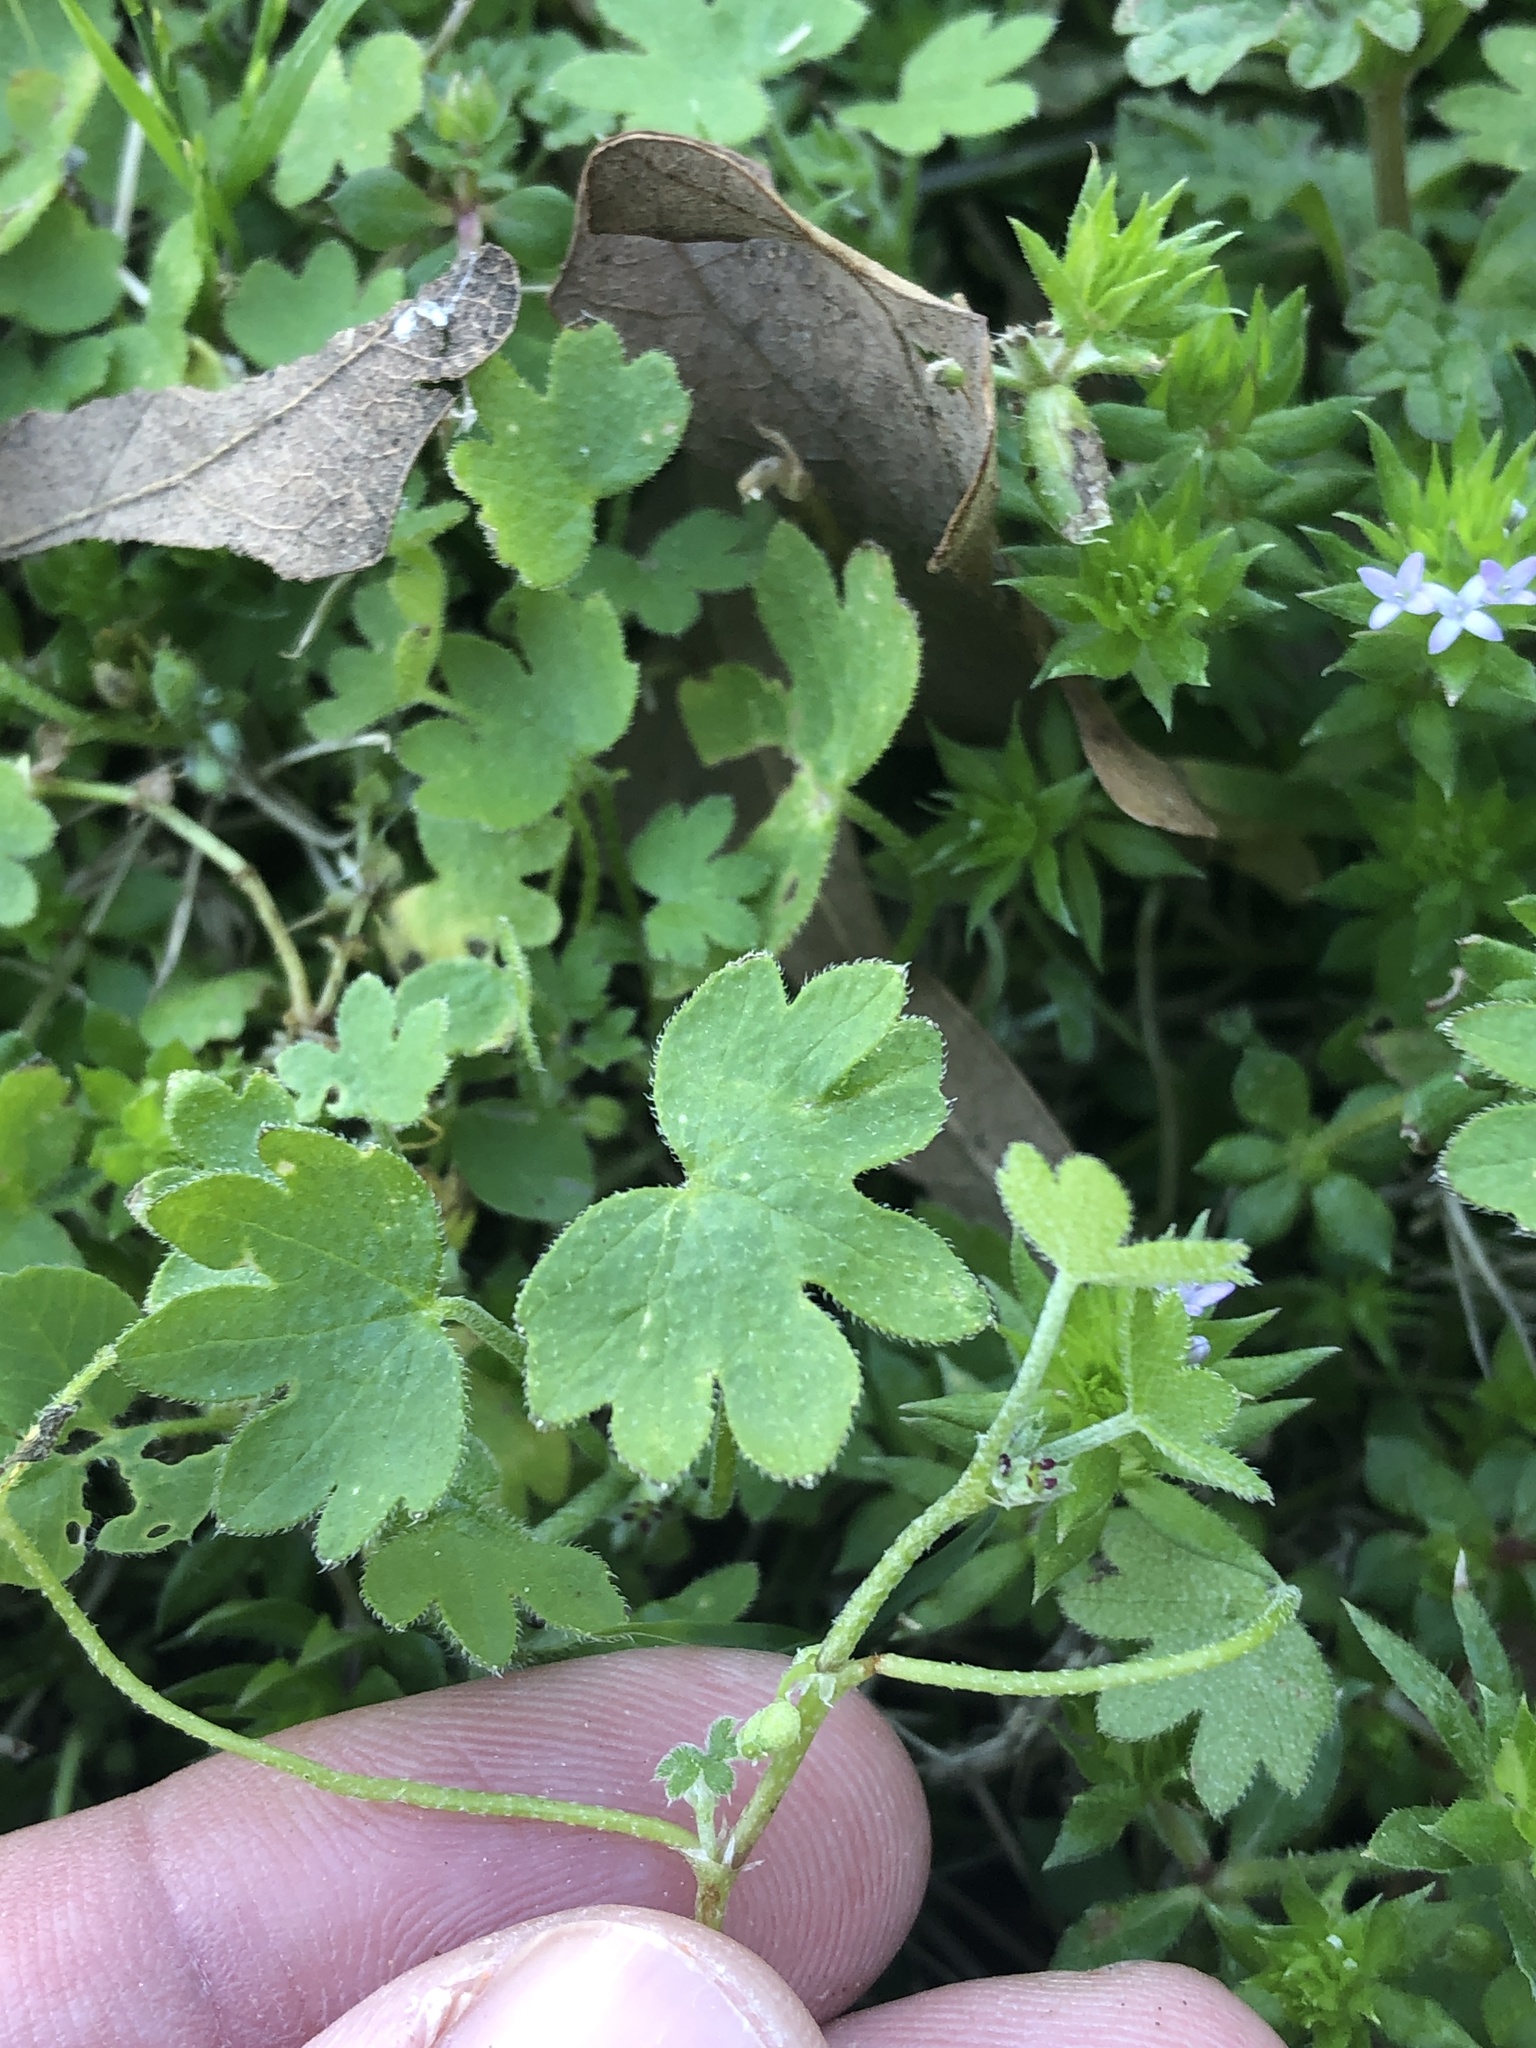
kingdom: Plantae
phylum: Tracheophyta
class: Magnoliopsida
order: Apiales
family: Apiaceae
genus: Bowlesia
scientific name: Bowlesia incana
